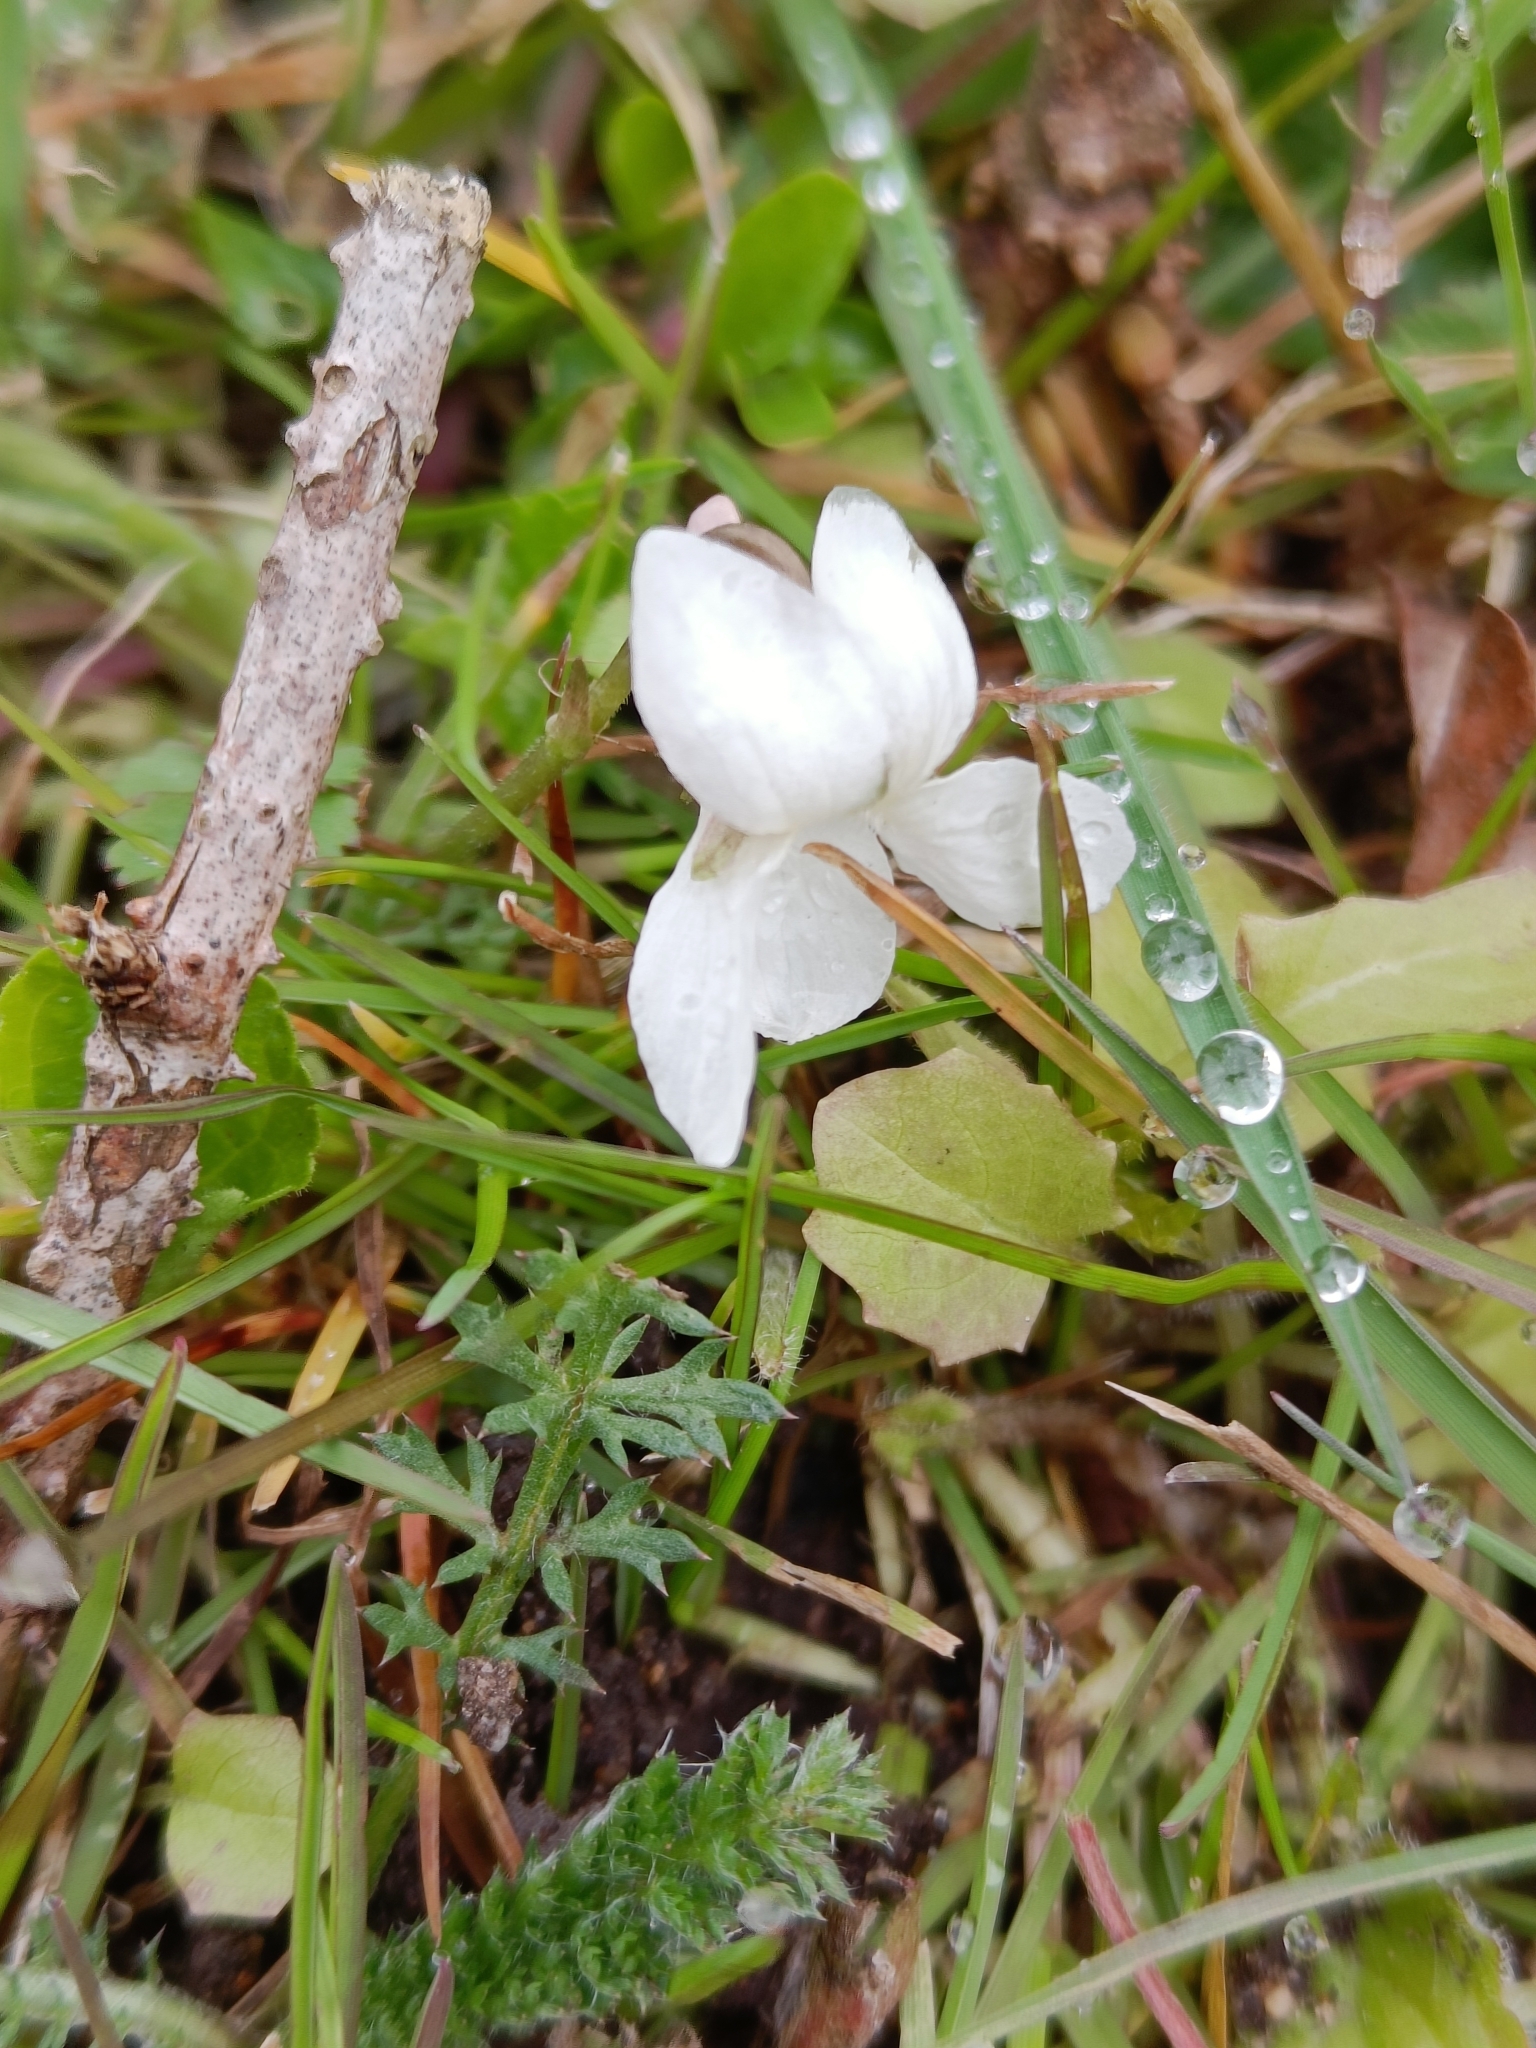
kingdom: Plantae
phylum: Tracheophyta
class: Magnoliopsida
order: Malpighiales
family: Violaceae
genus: Viola
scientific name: Viola odorata
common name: Sweet violet
